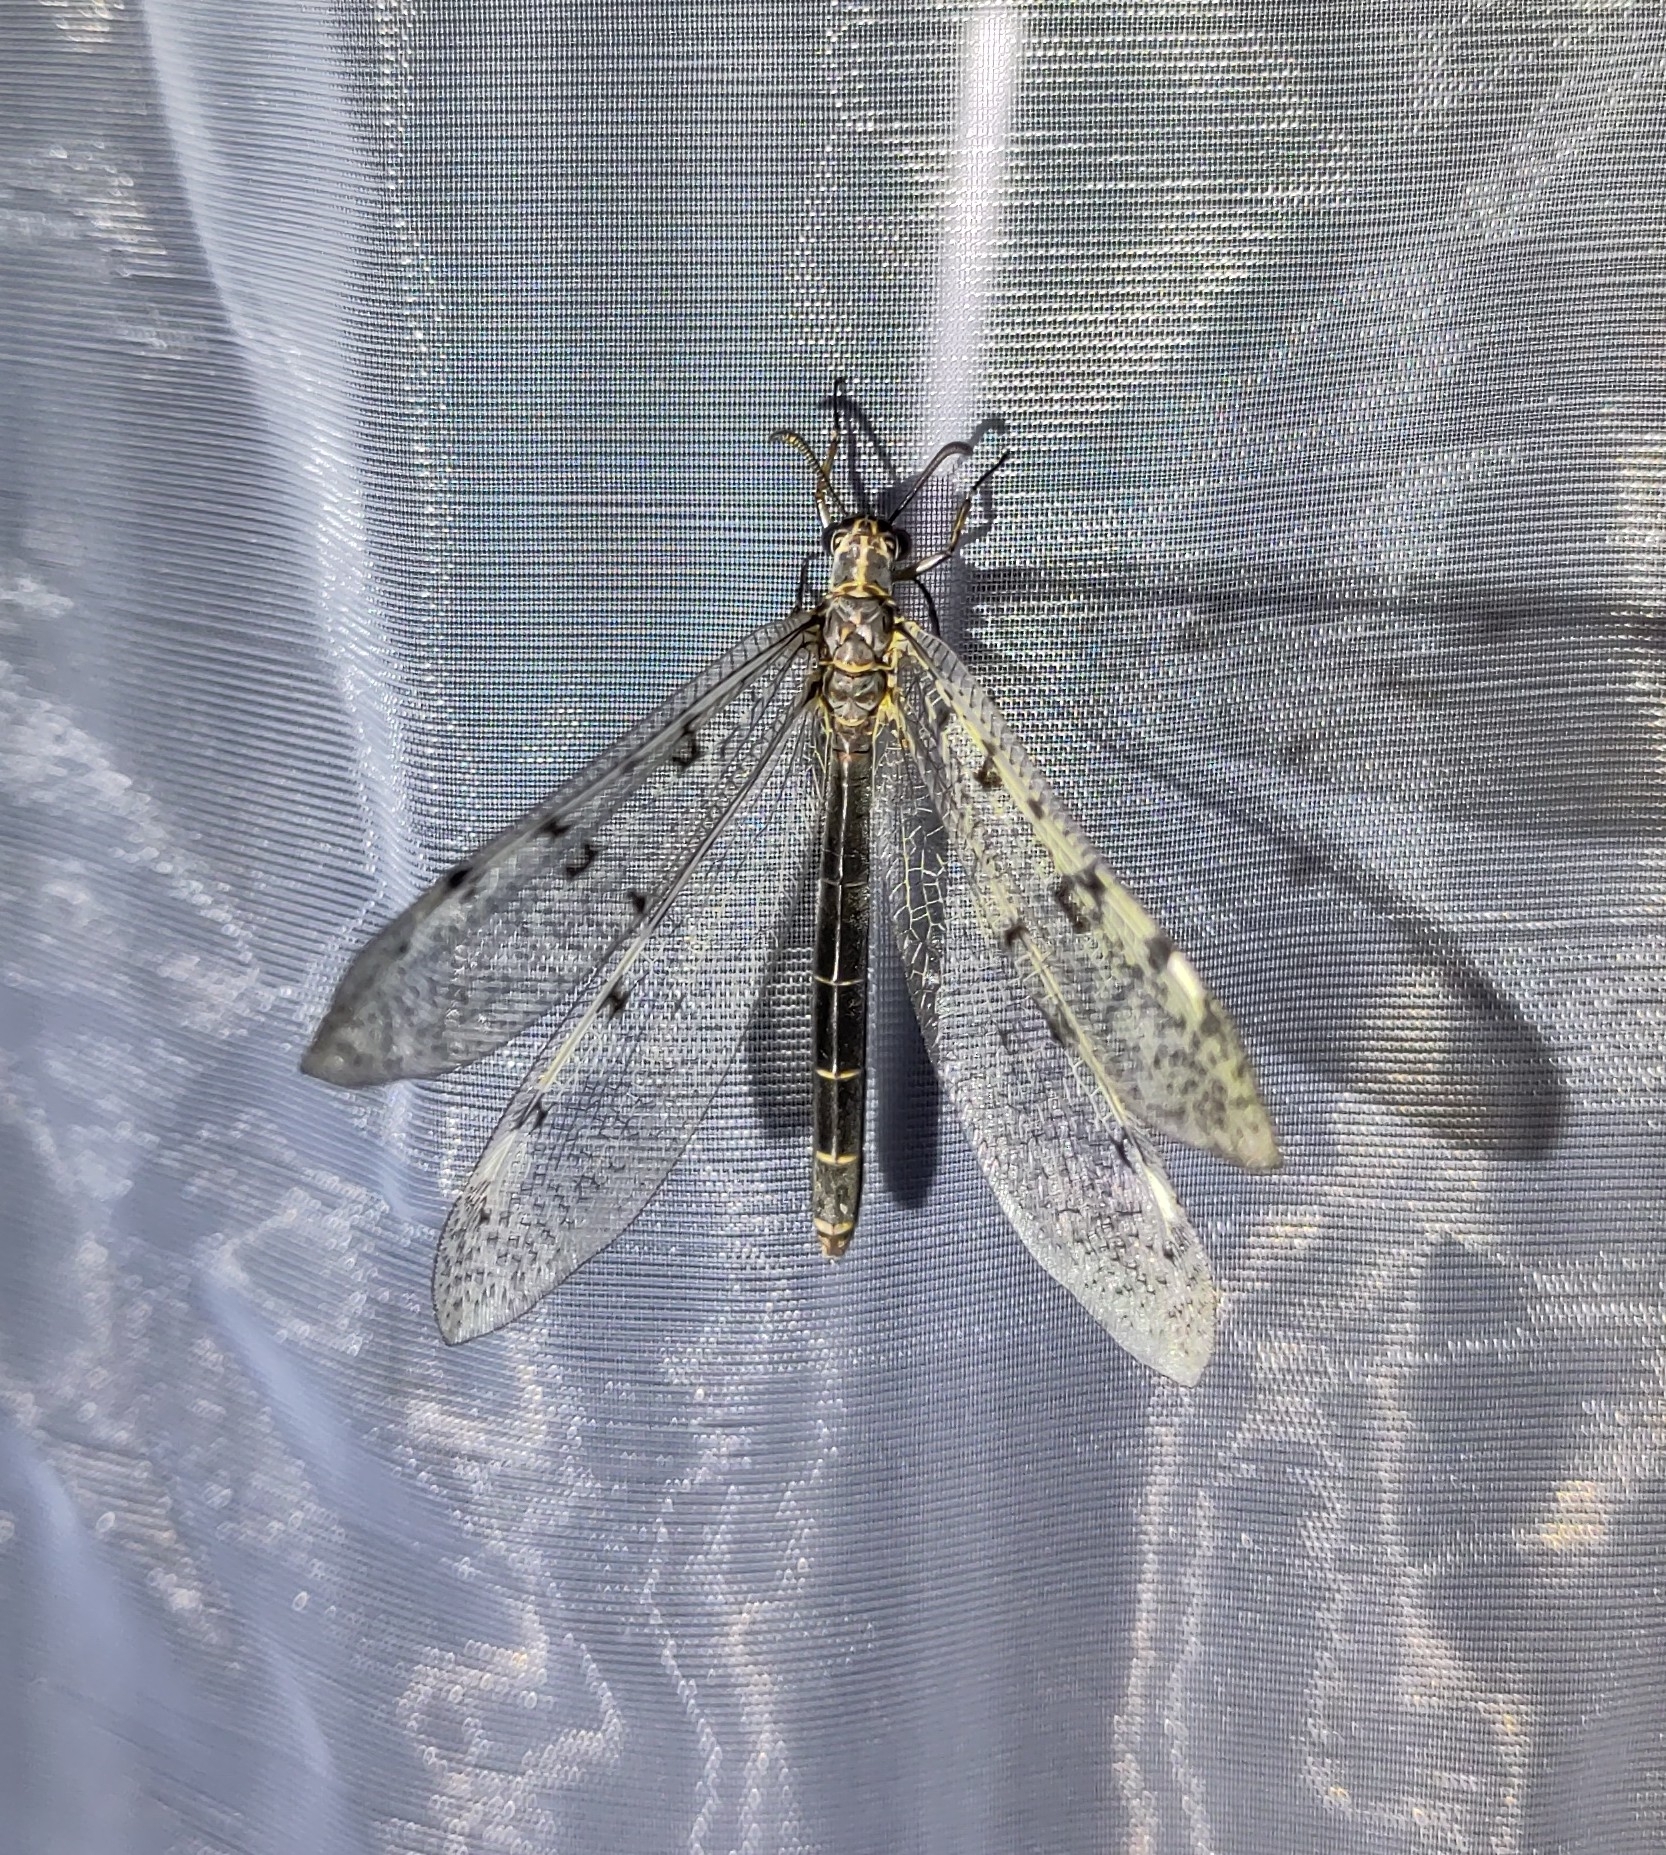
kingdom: Animalia
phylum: Arthropoda
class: Insecta
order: Neuroptera
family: Myrmeleontidae
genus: Euroleon
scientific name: Euroleon nostras
